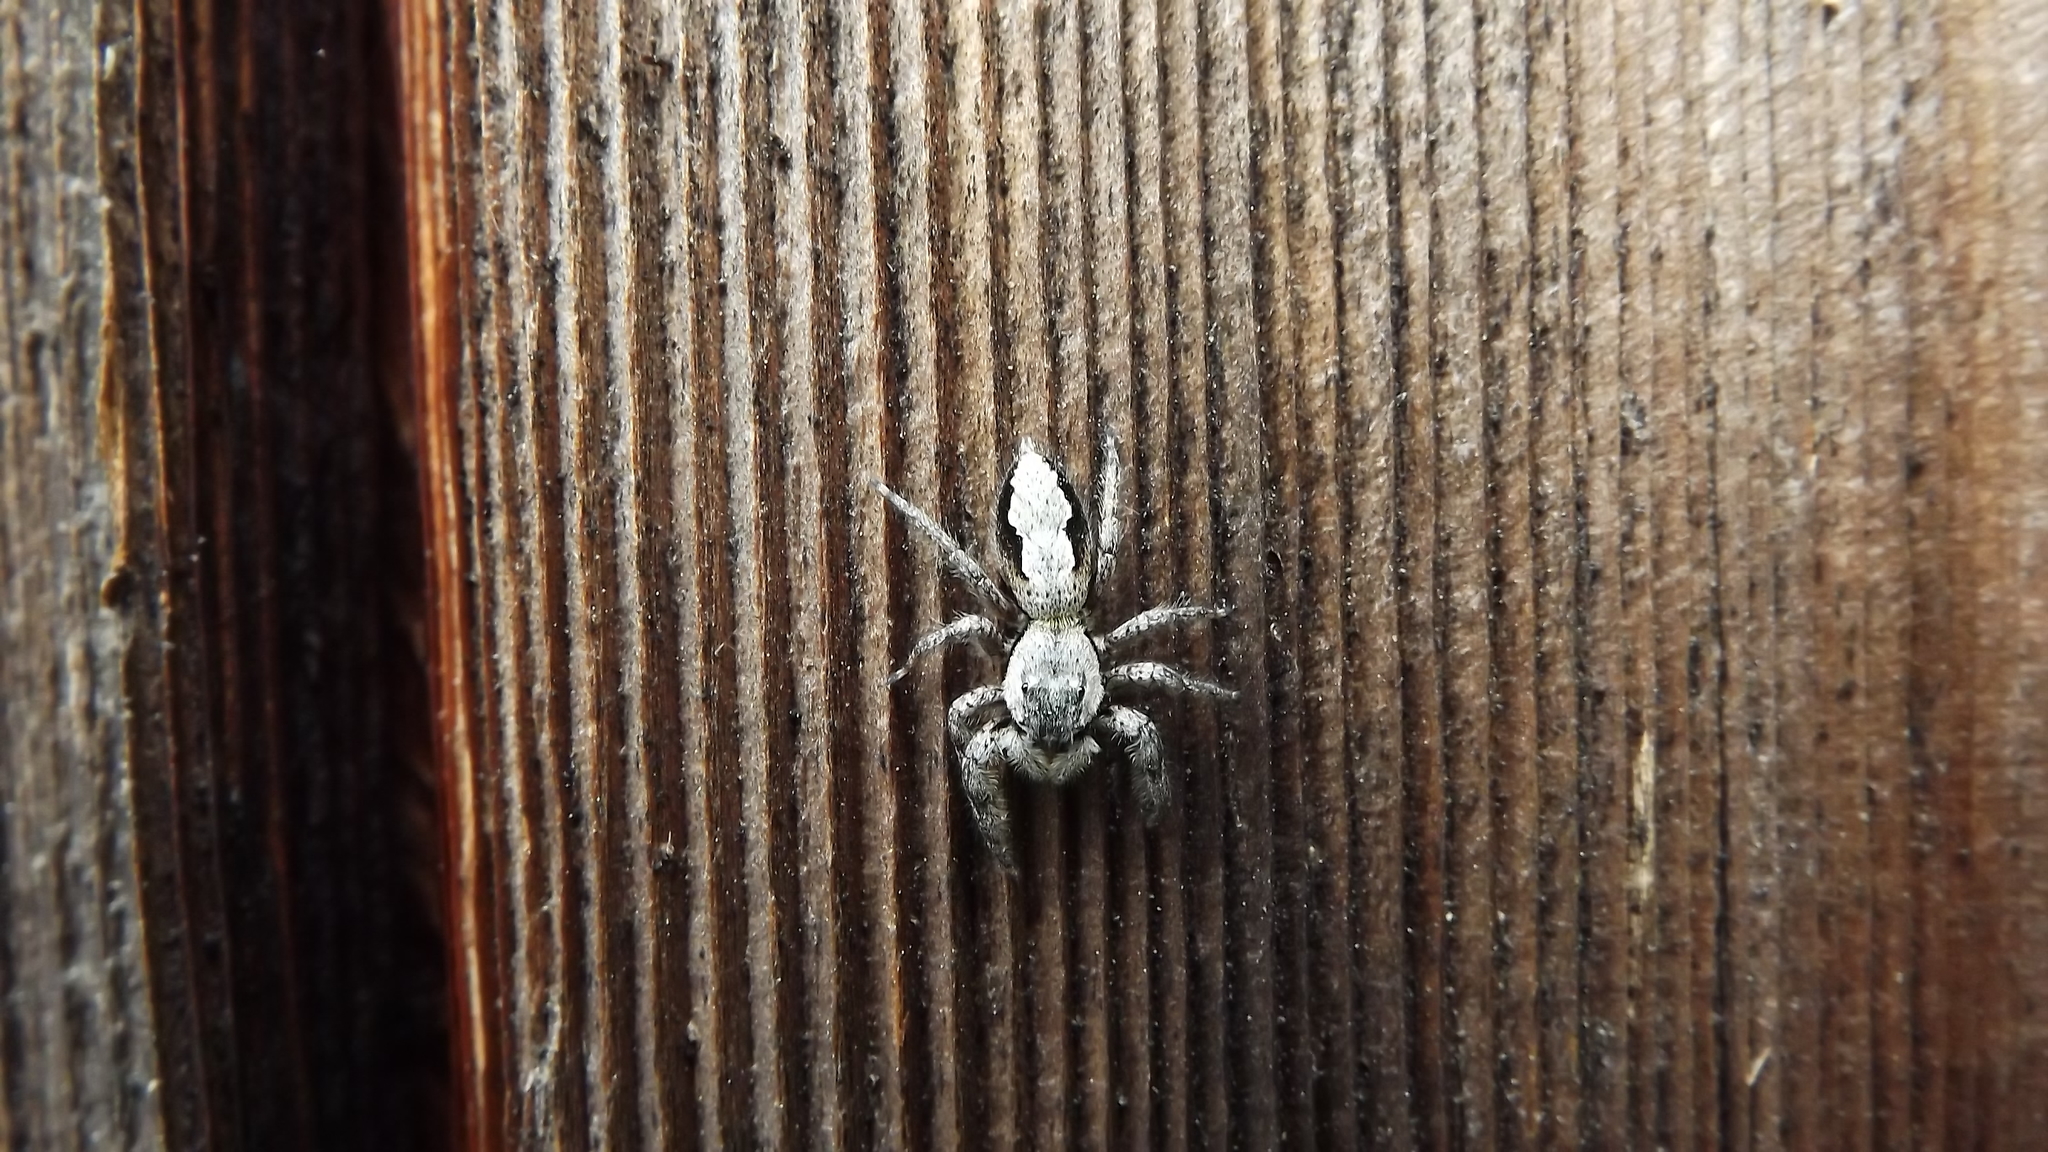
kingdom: Animalia
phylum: Arthropoda
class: Arachnida
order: Araneae
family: Salticidae
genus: Platycryptus
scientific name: Platycryptus undatus
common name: Tan jumping spider
